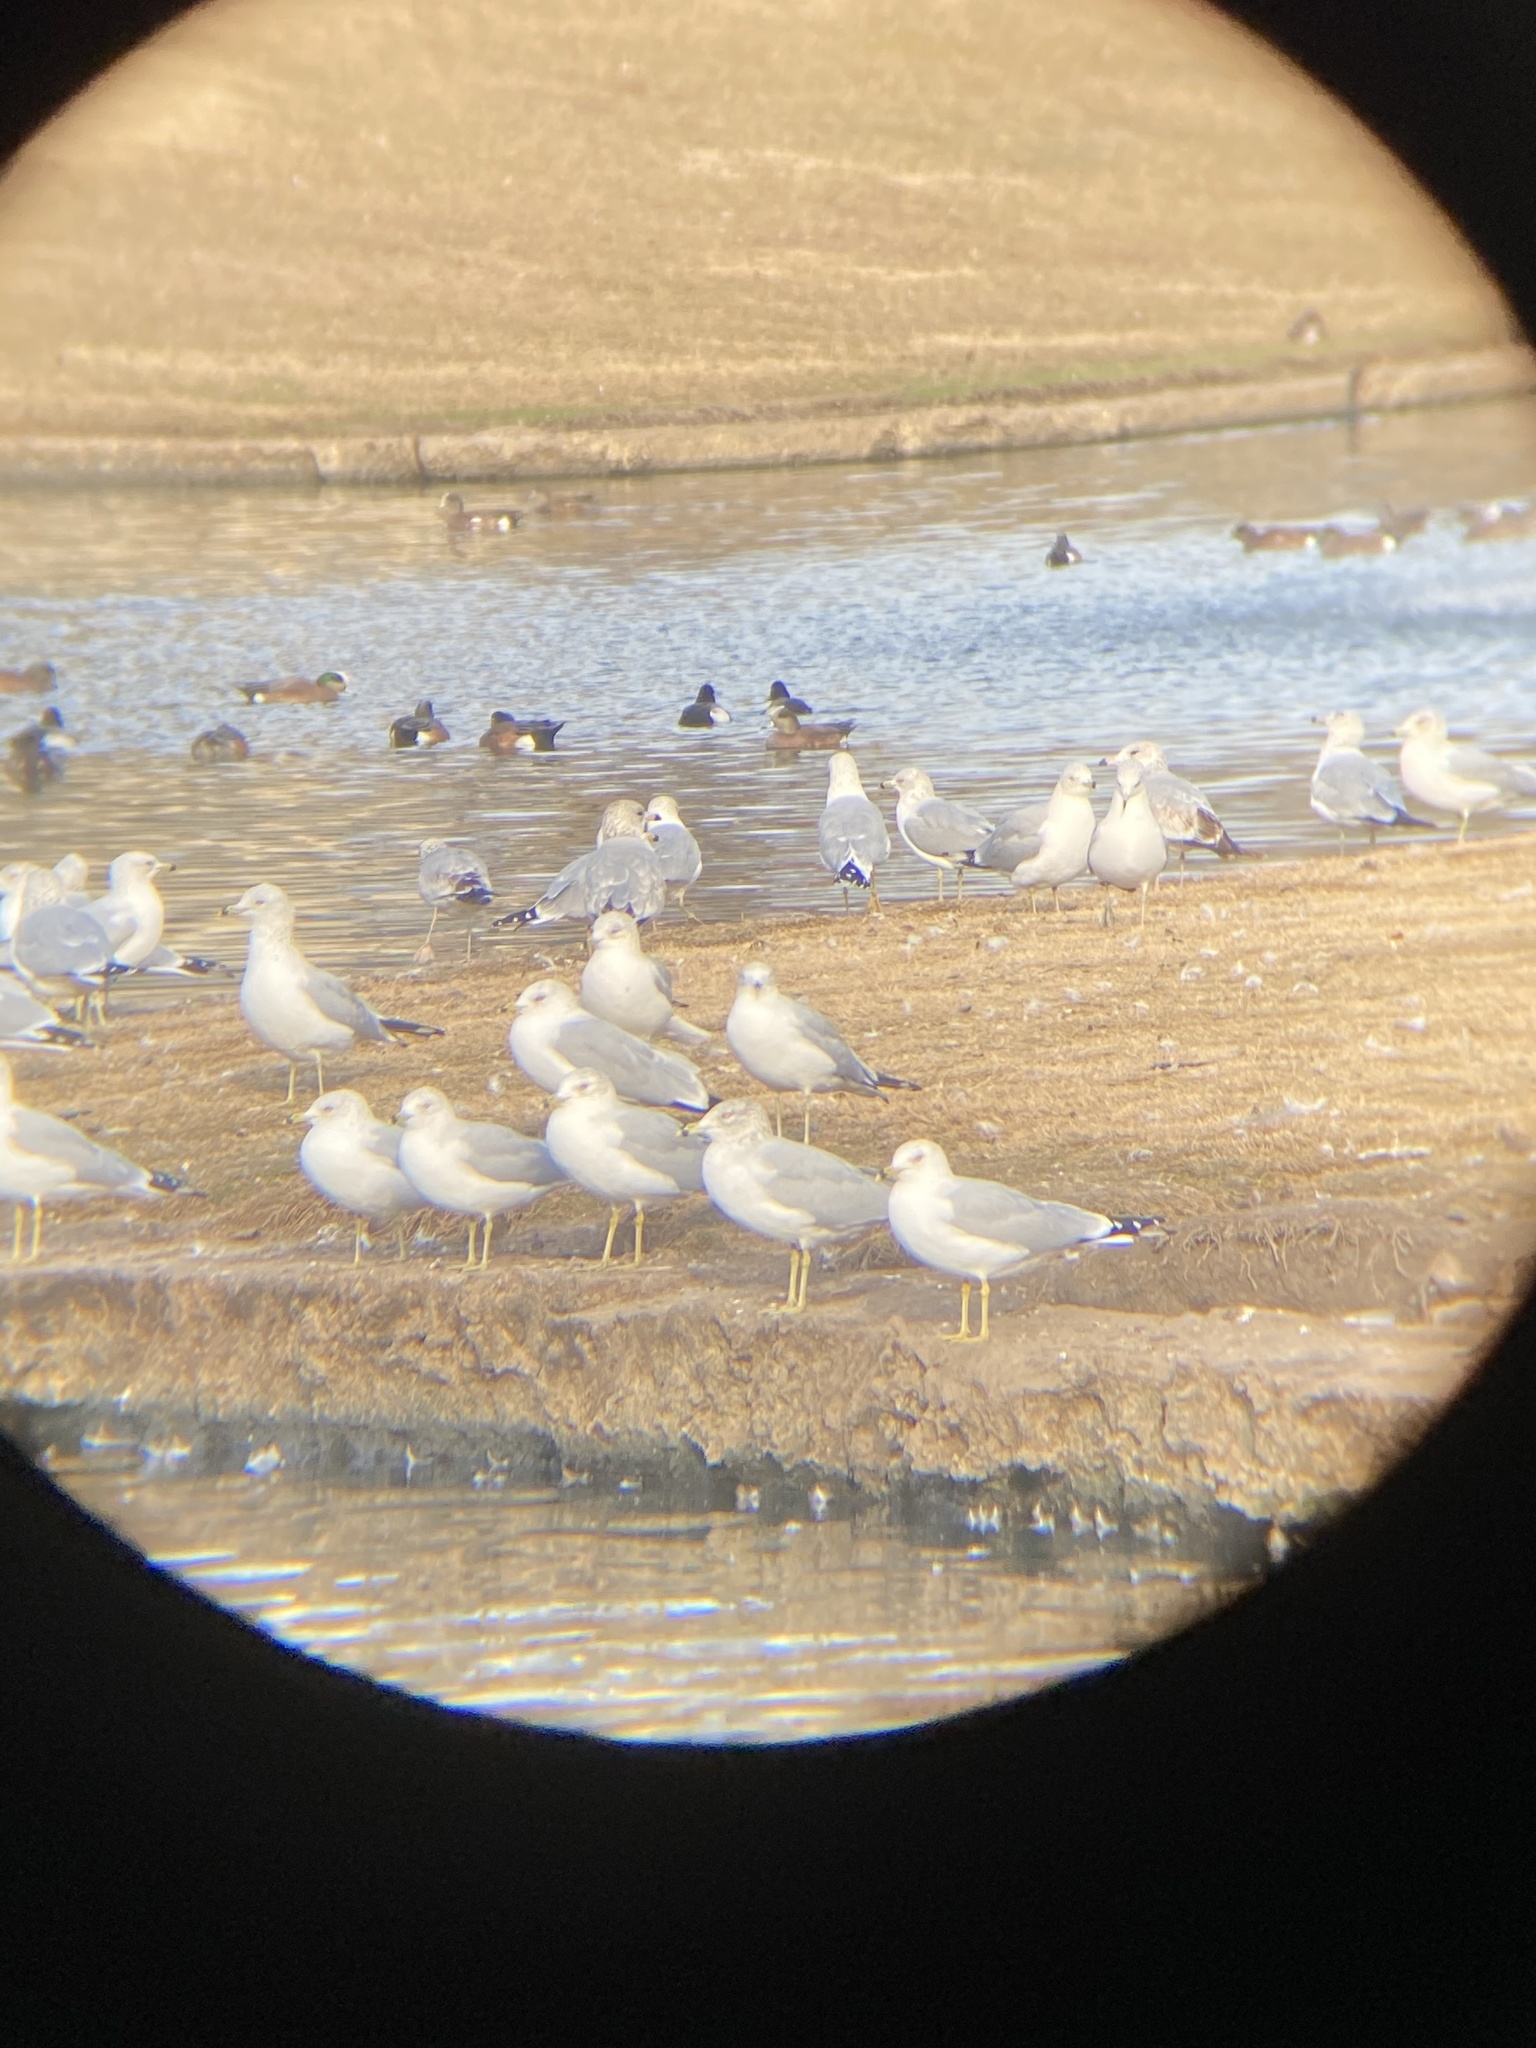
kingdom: Animalia
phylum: Chordata
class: Aves
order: Charadriiformes
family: Laridae
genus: Larus
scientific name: Larus delawarensis
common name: Ring-billed gull
